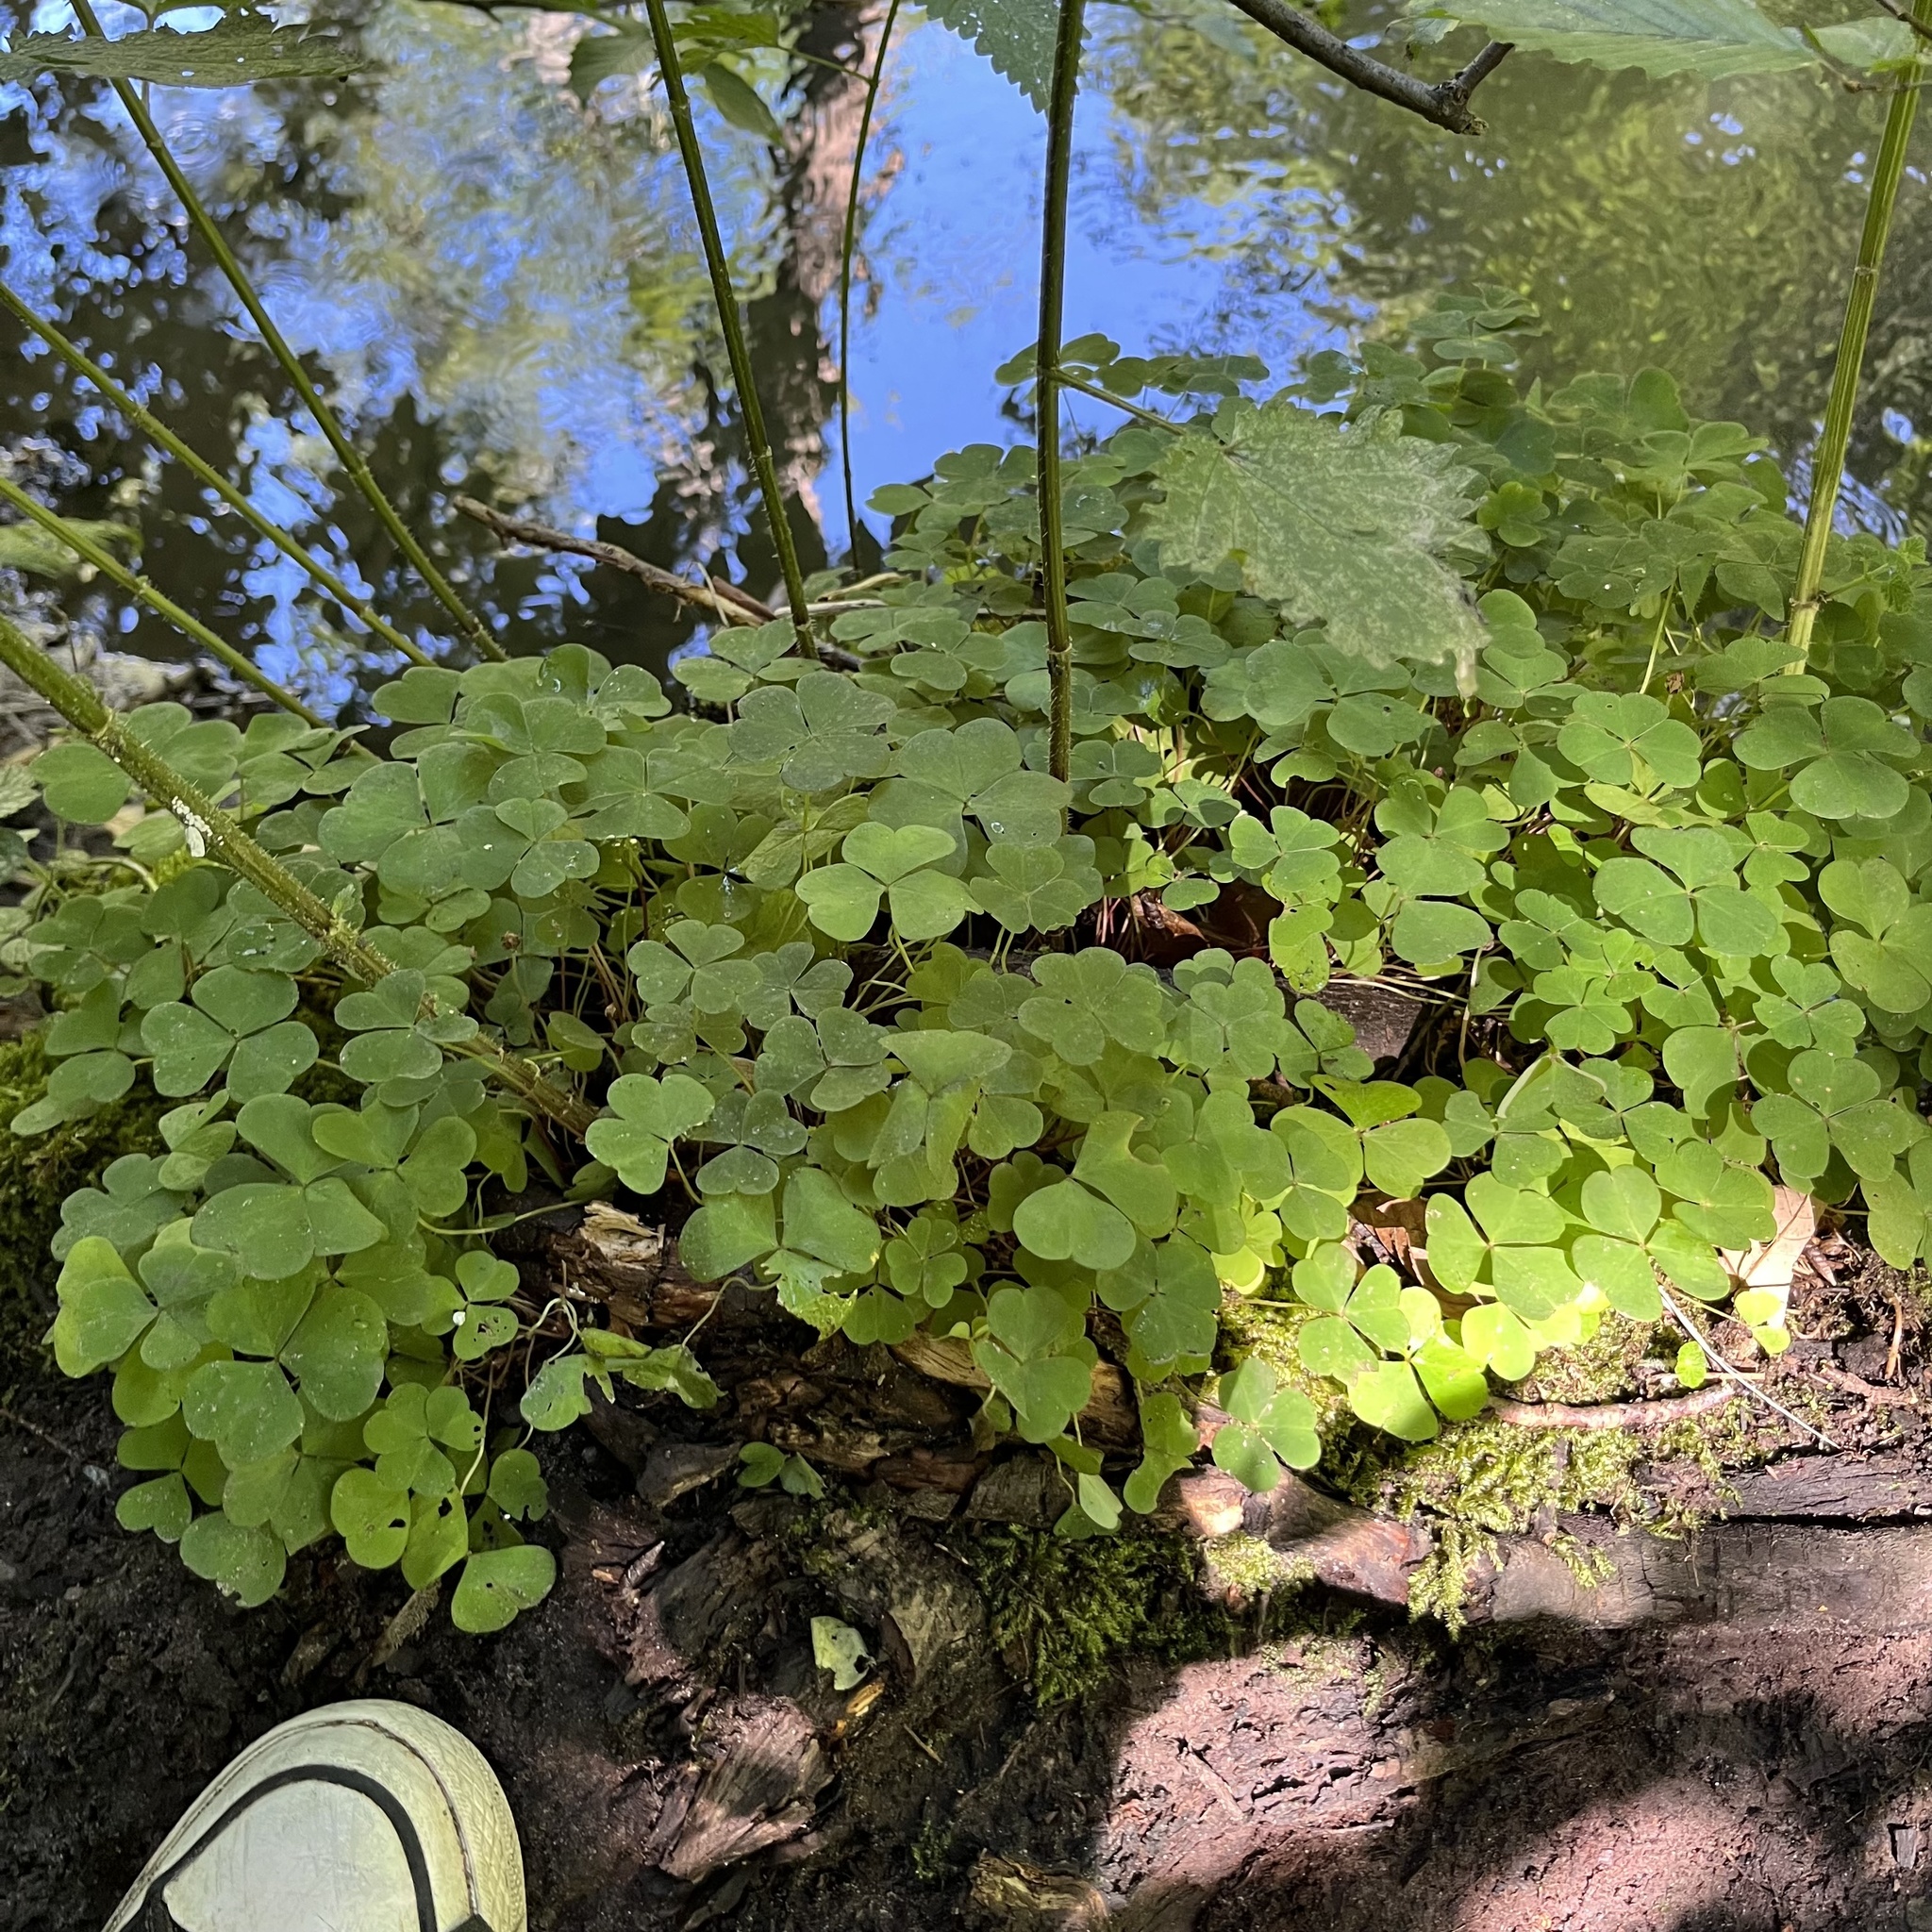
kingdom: Plantae
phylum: Tracheophyta
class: Magnoliopsida
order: Oxalidales
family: Oxalidaceae
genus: Oxalis
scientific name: Oxalis acetosella
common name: Wood-sorrel
